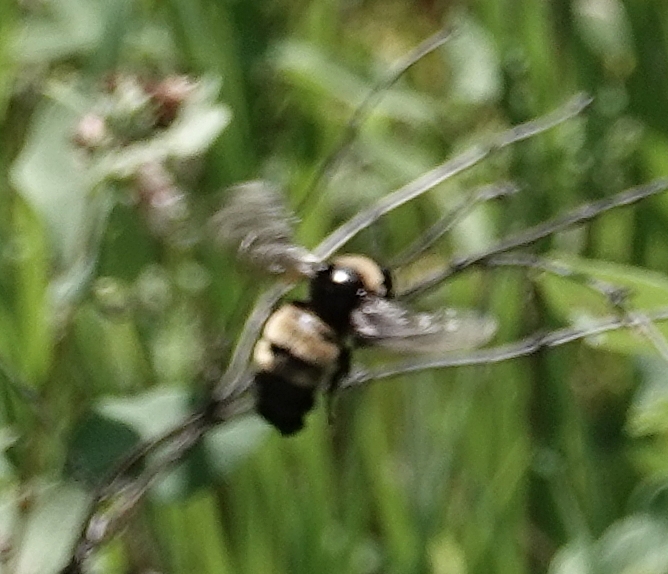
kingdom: Animalia
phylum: Arthropoda
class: Insecta
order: Hymenoptera
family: Apidae
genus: Bombus
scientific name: Bombus pensylvanicus
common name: Bumble bee
